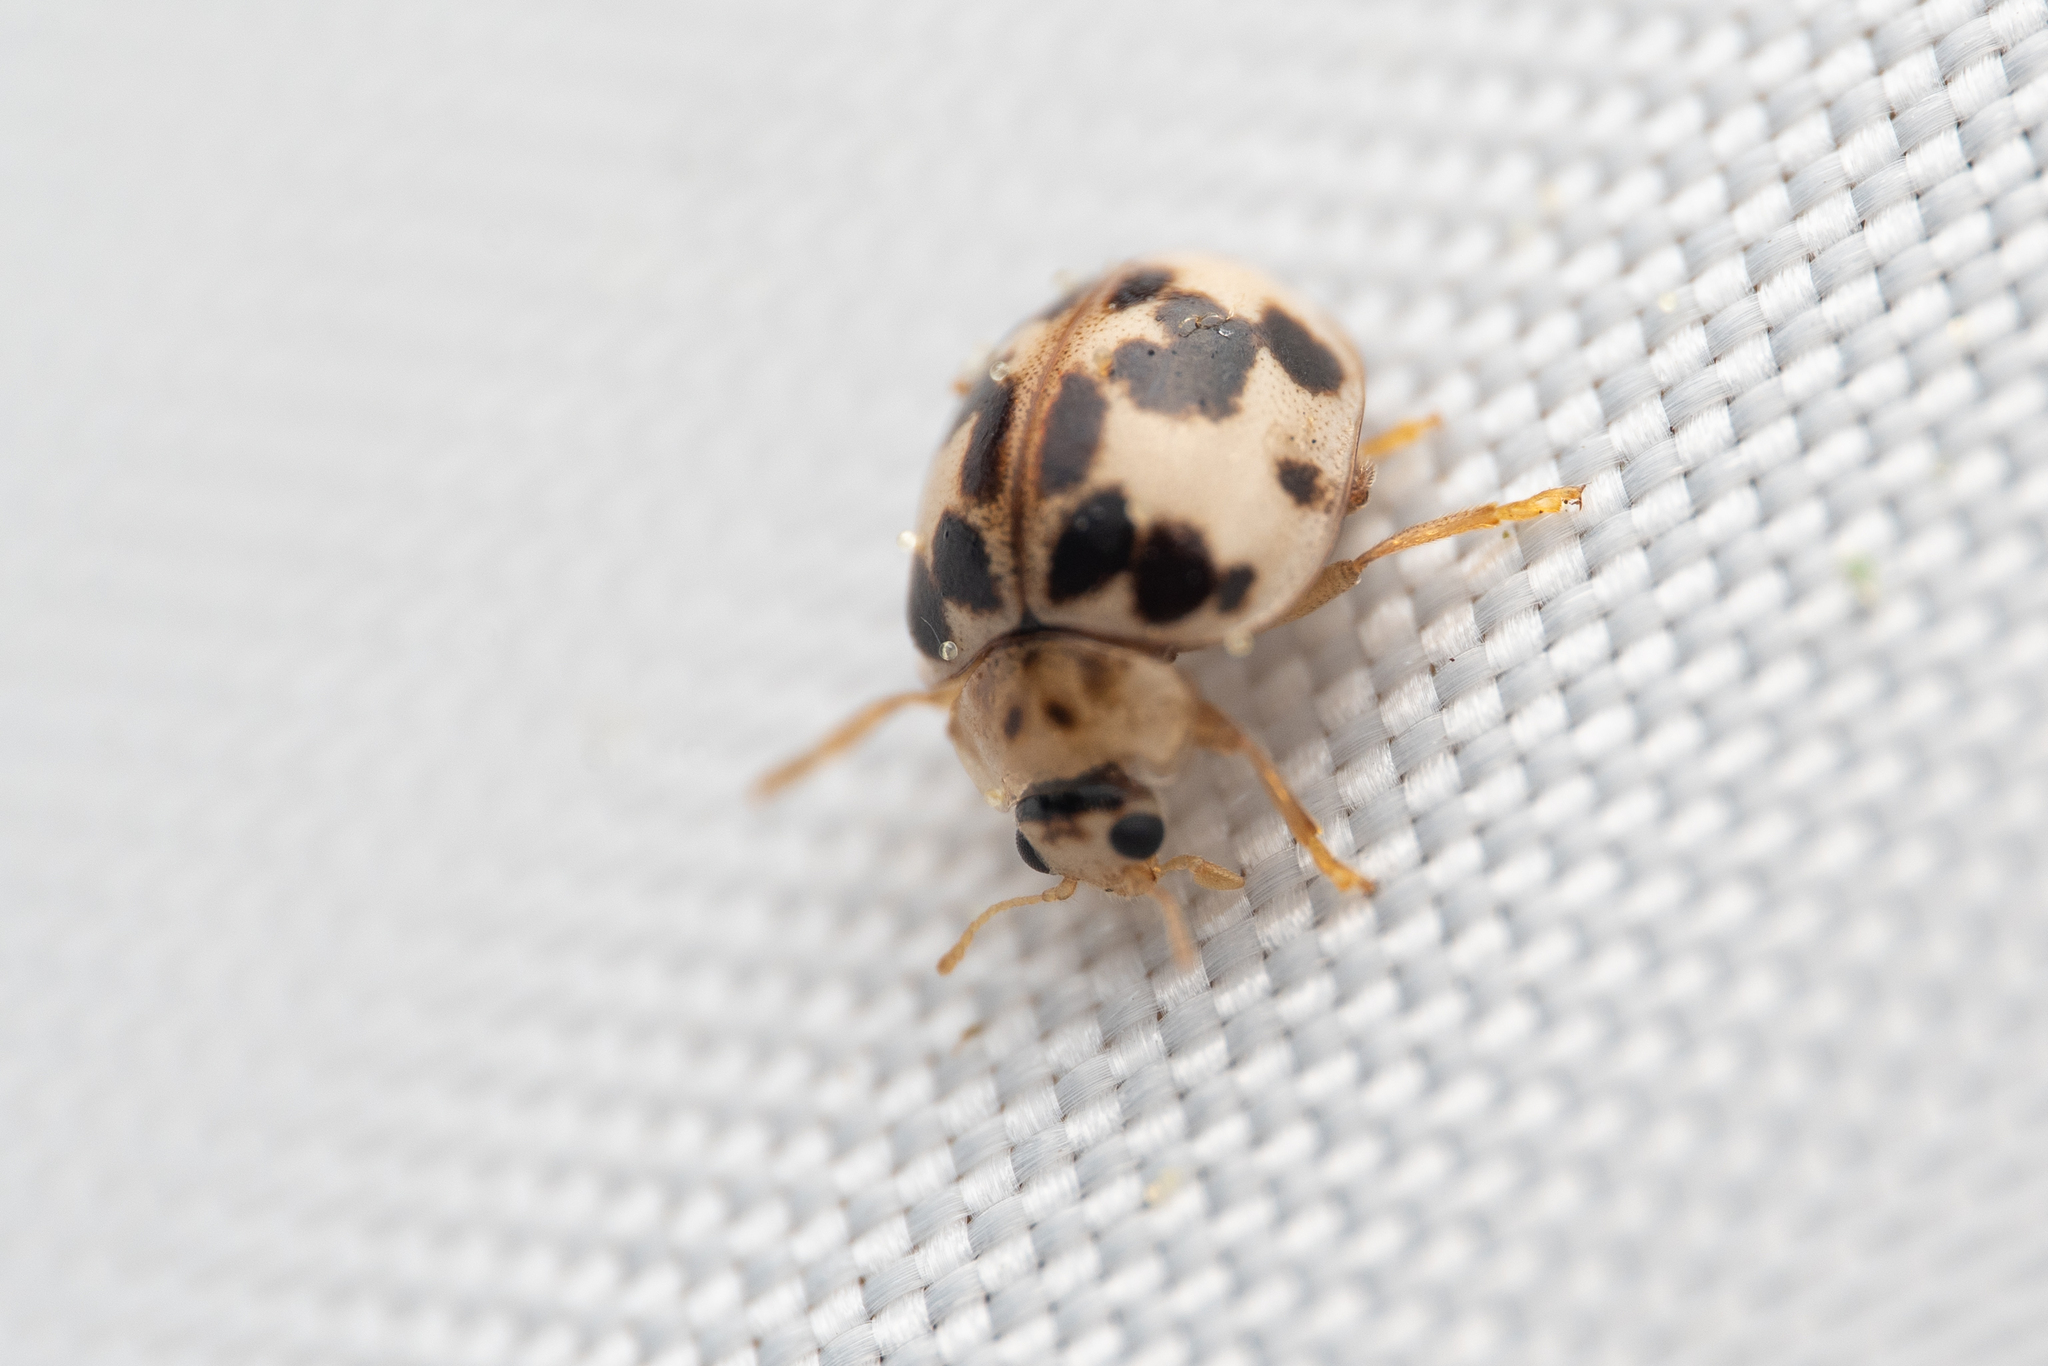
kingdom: Animalia
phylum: Arthropoda
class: Insecta
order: Coleoptera
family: Coccinellidae
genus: Psyllobora
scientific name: Psyllobora borealis
